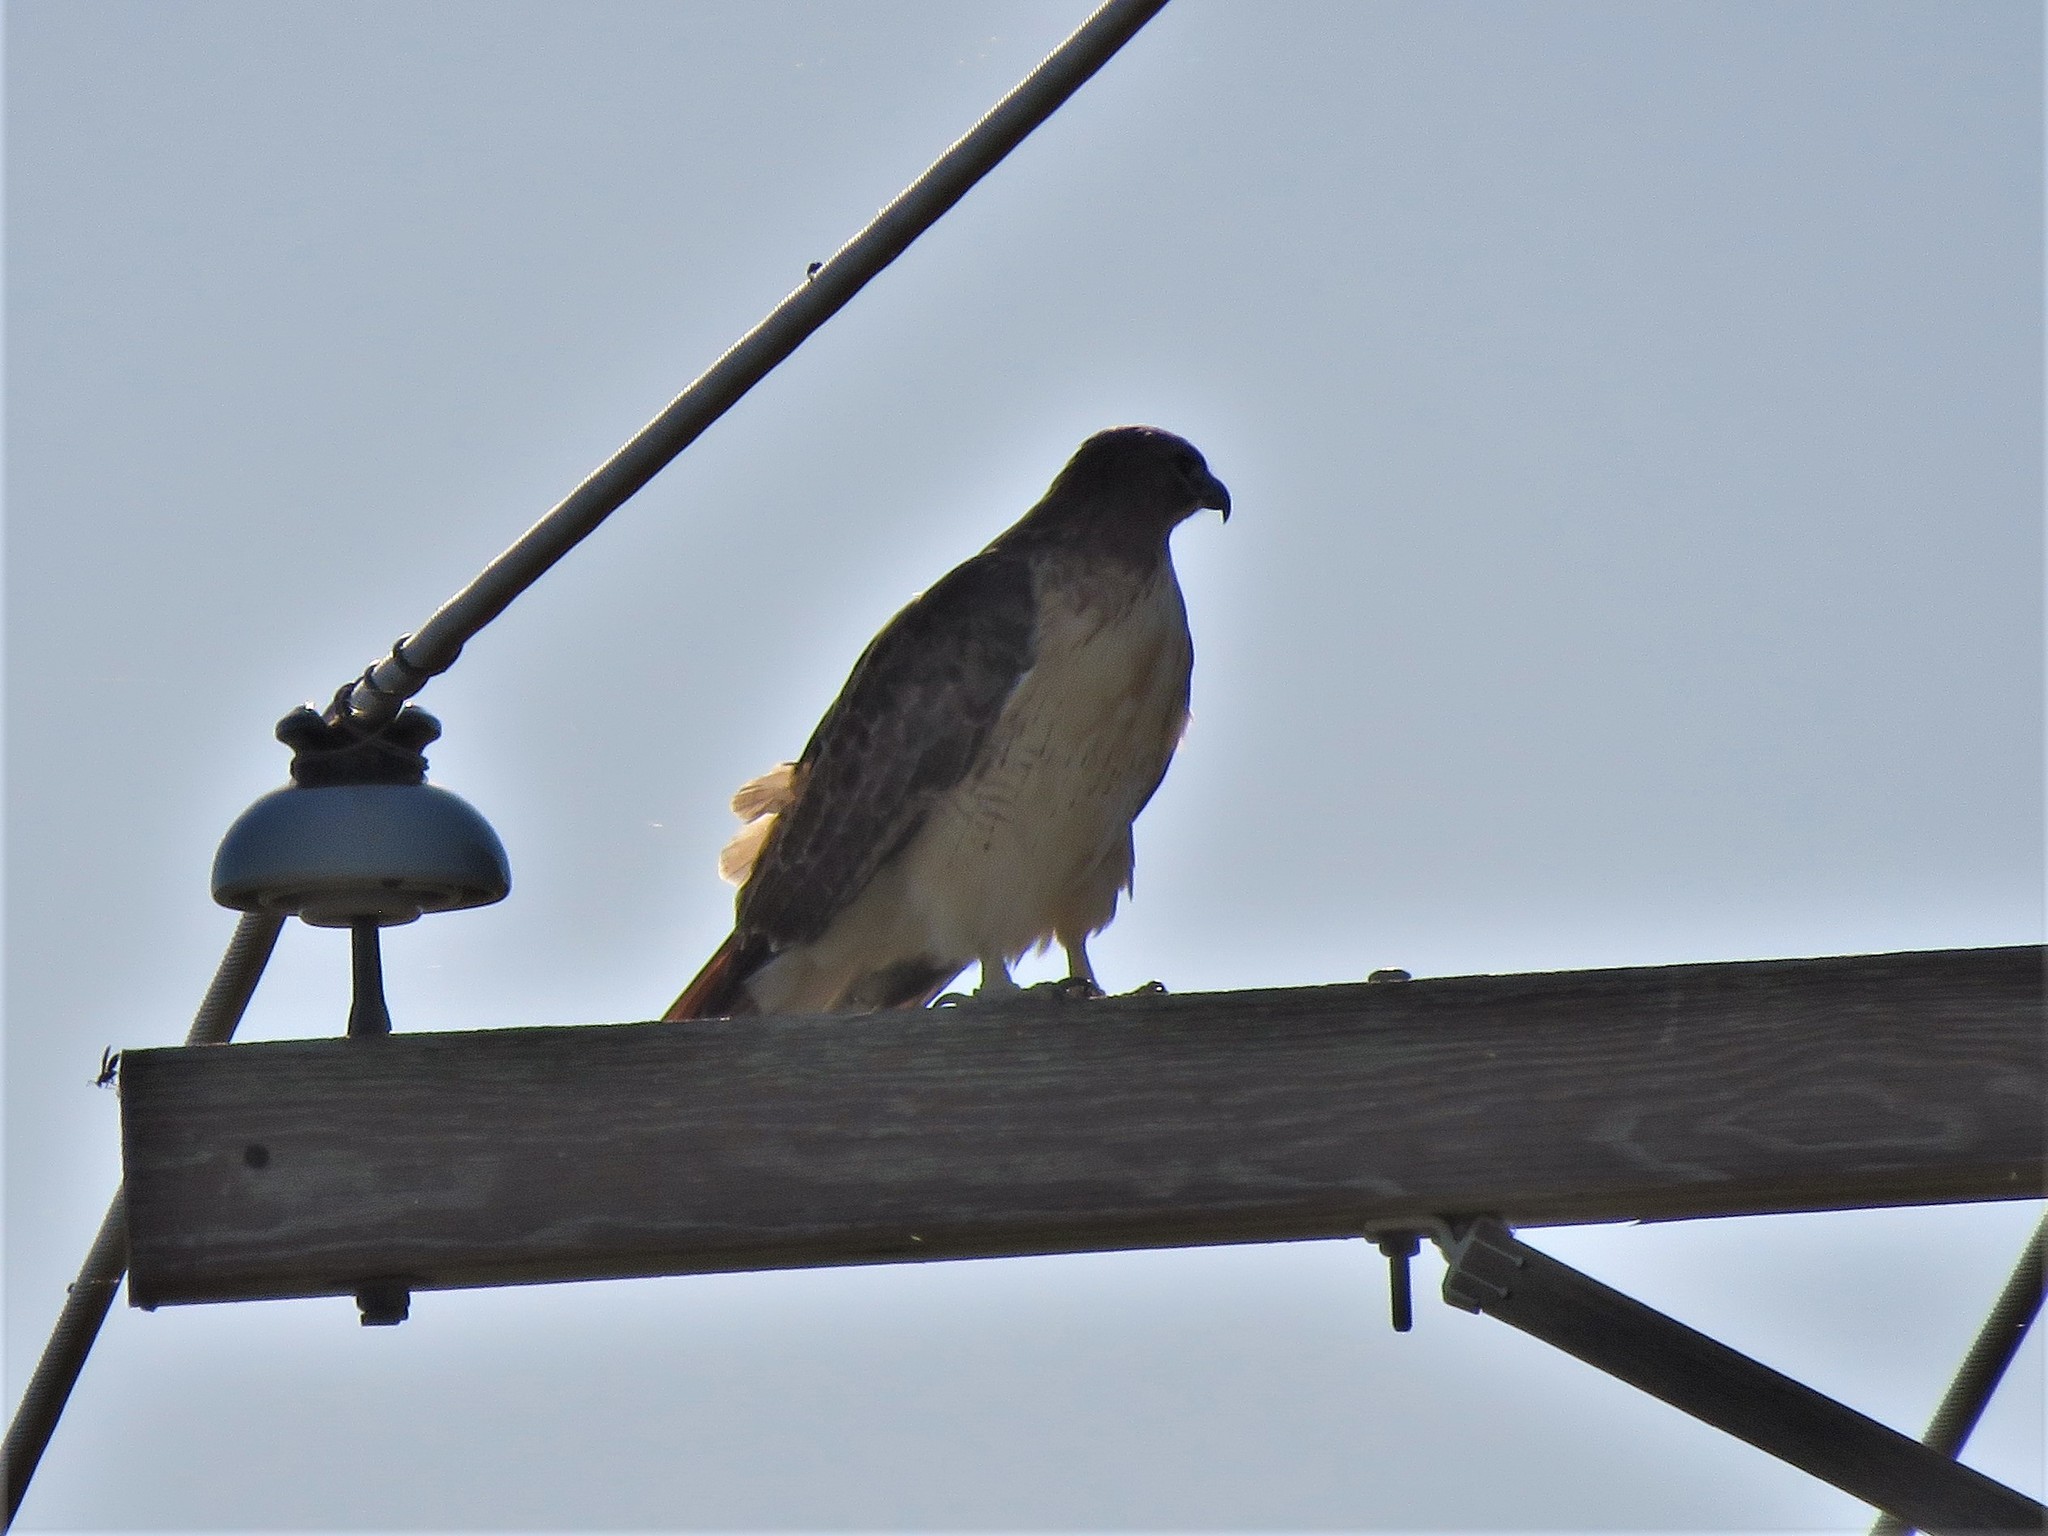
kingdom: Animalia
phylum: Chordata
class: Aves
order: Accipitriformes
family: Accipitridae
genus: Buteo
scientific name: Buteo jamaicensis
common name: Red-tailed hawk
